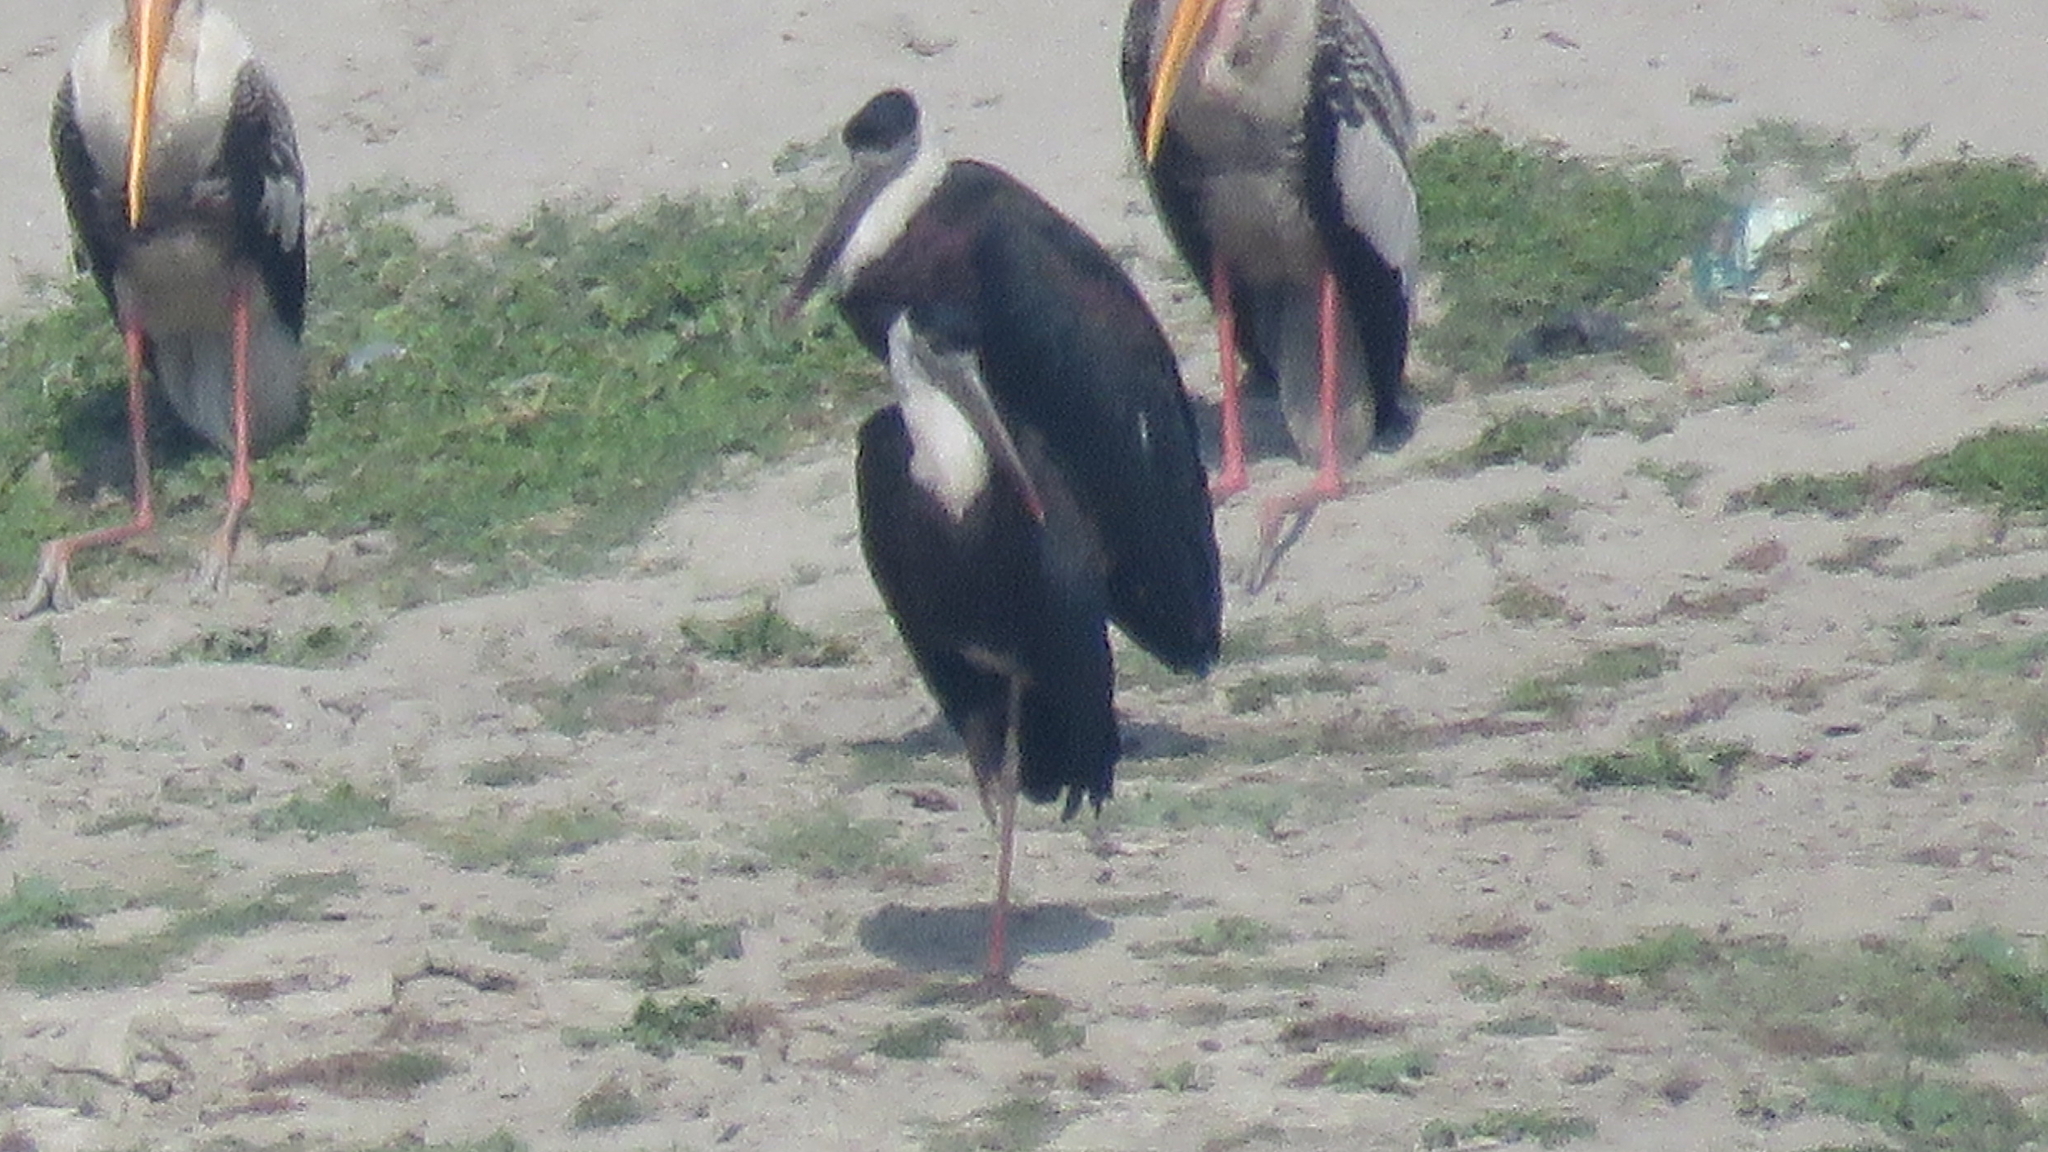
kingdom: Animalia
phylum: Chordata
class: Aves
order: Ciconiiformes
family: Ciconiidae
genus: Ciconia
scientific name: Ciconia episcopus
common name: Woolly-necked stork
